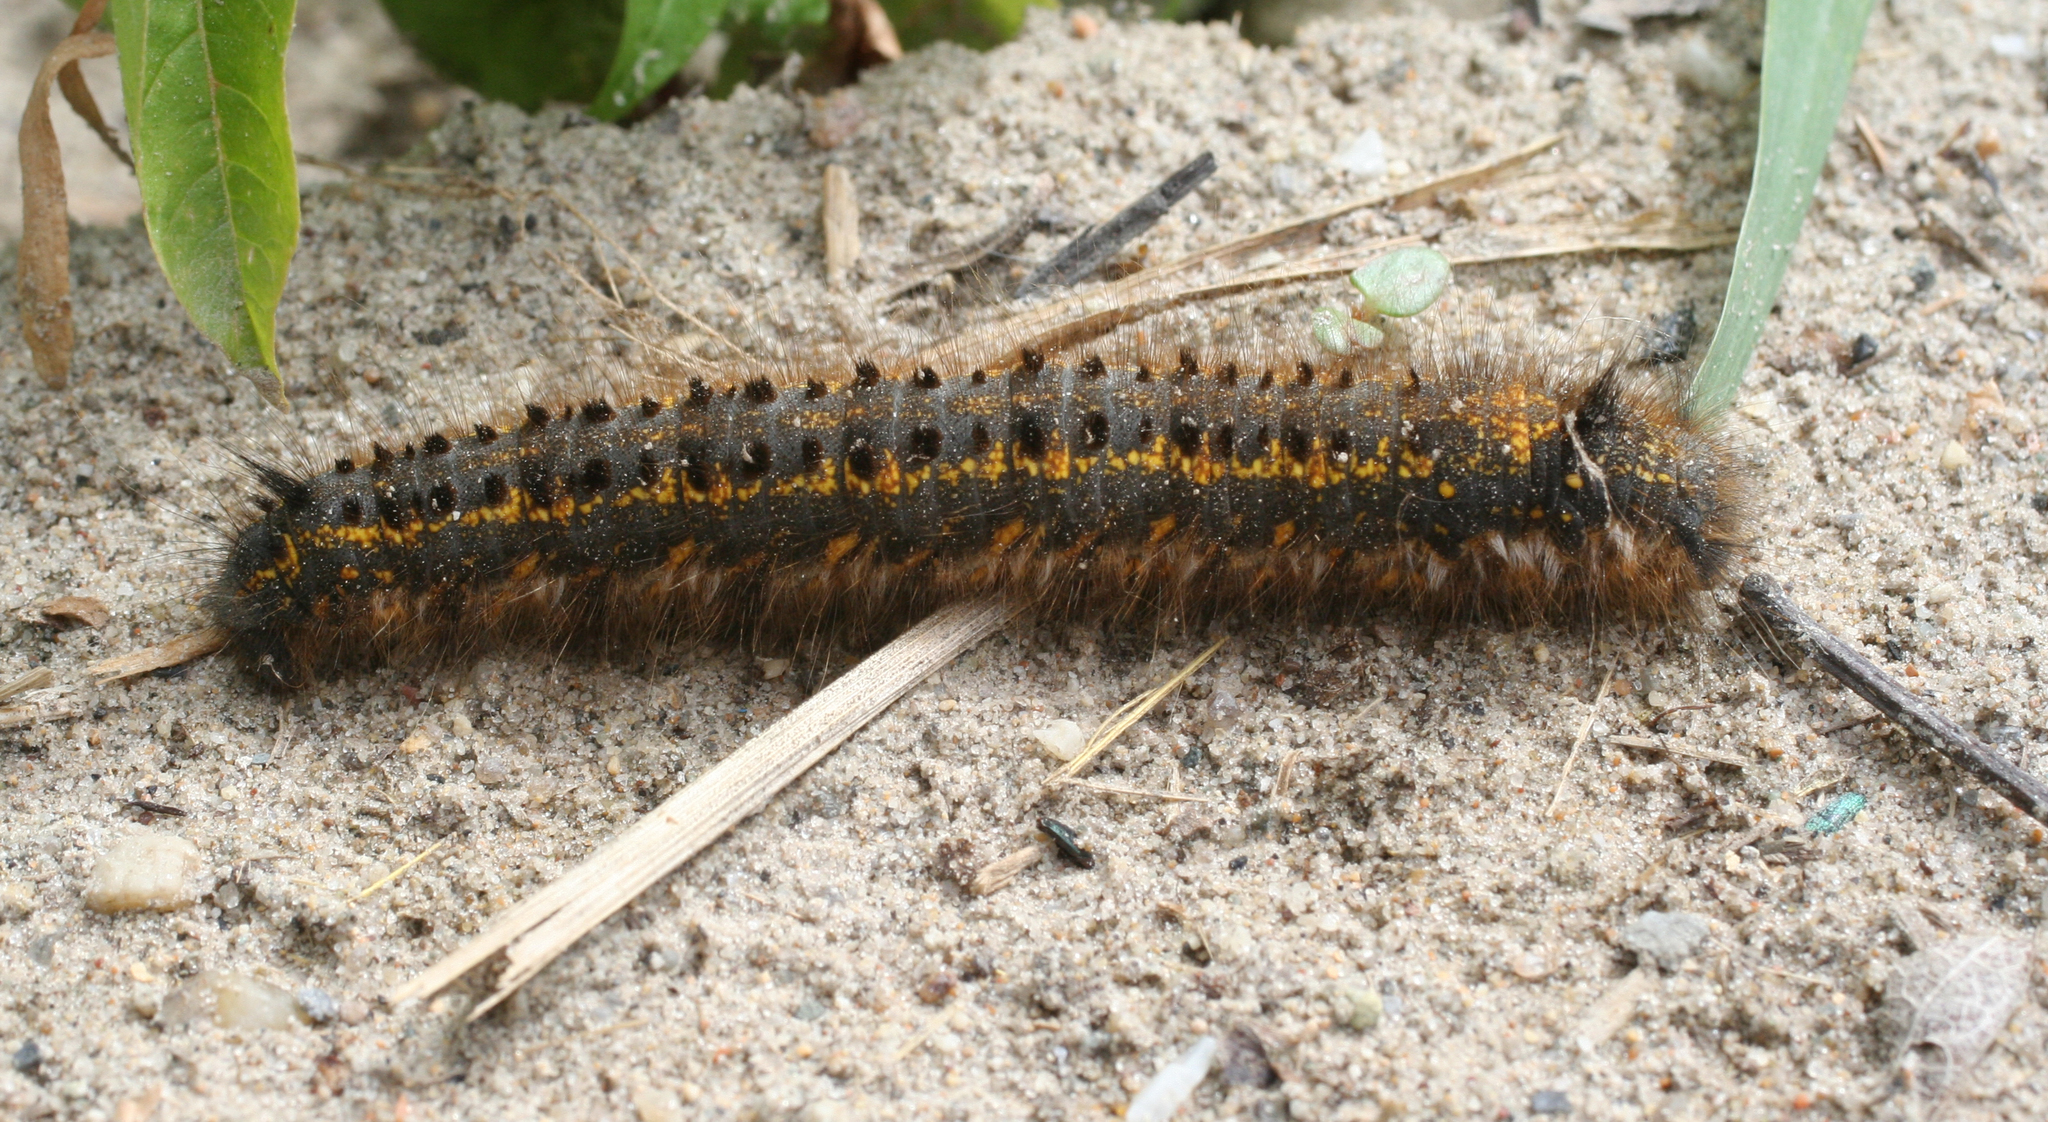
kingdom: Animalia
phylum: Arthropoda
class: Insecta
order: Lepidoptera
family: Lasiocampidae
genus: Euthrix
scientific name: Euthrix potatoria
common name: Drinker
